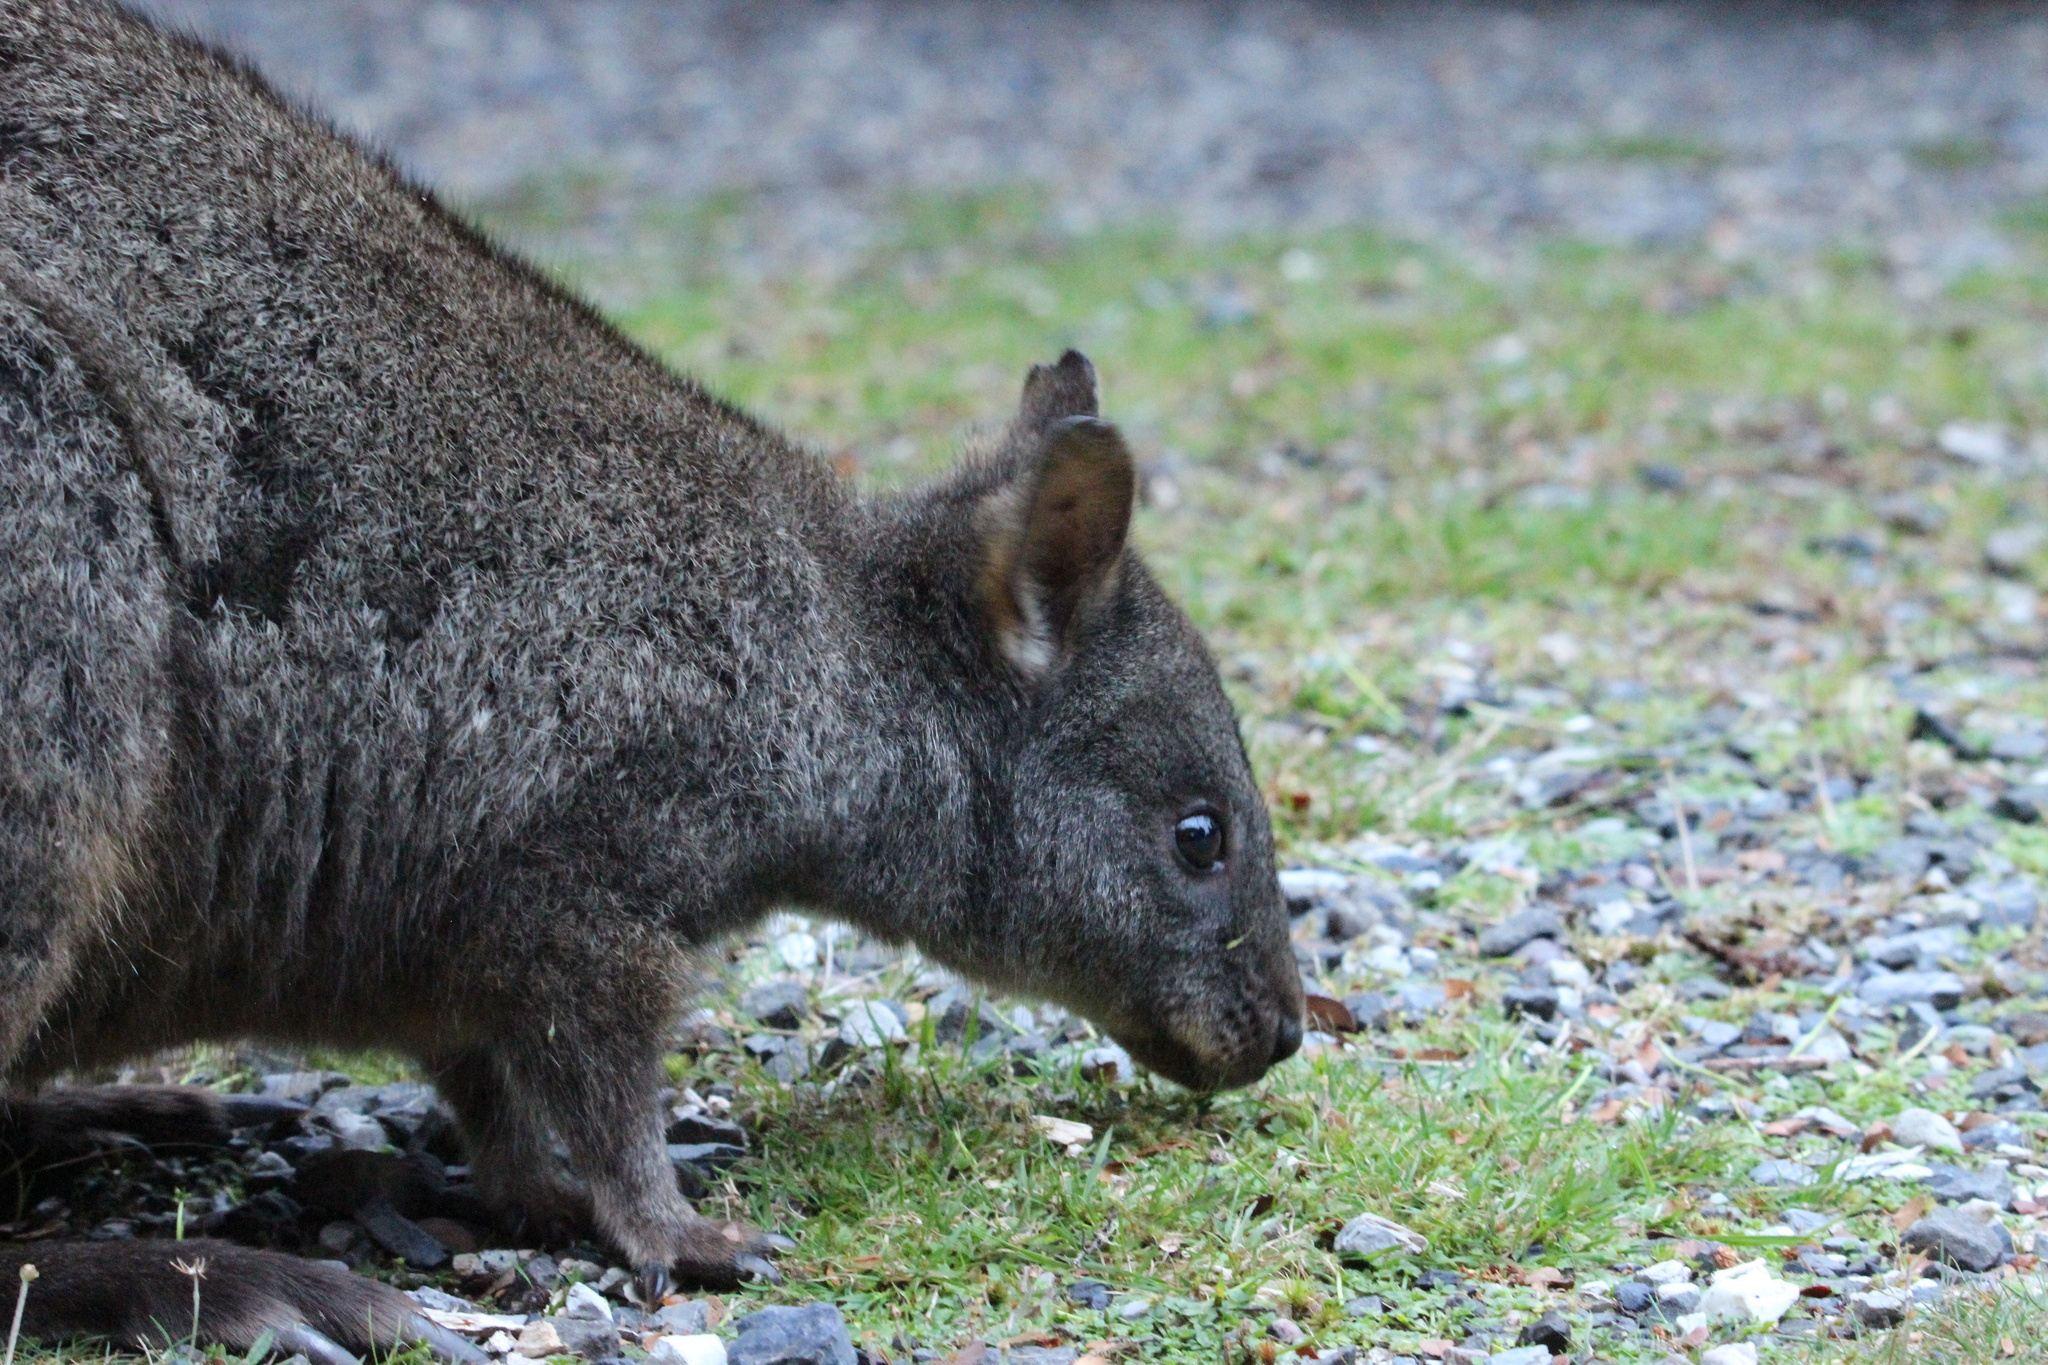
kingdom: Animalia
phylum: Chordata
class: Mammalia
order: Diprotodontia
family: Macropodidae
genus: Thylogale
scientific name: Thylogale billardierii
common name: Tasmanian pademelon
